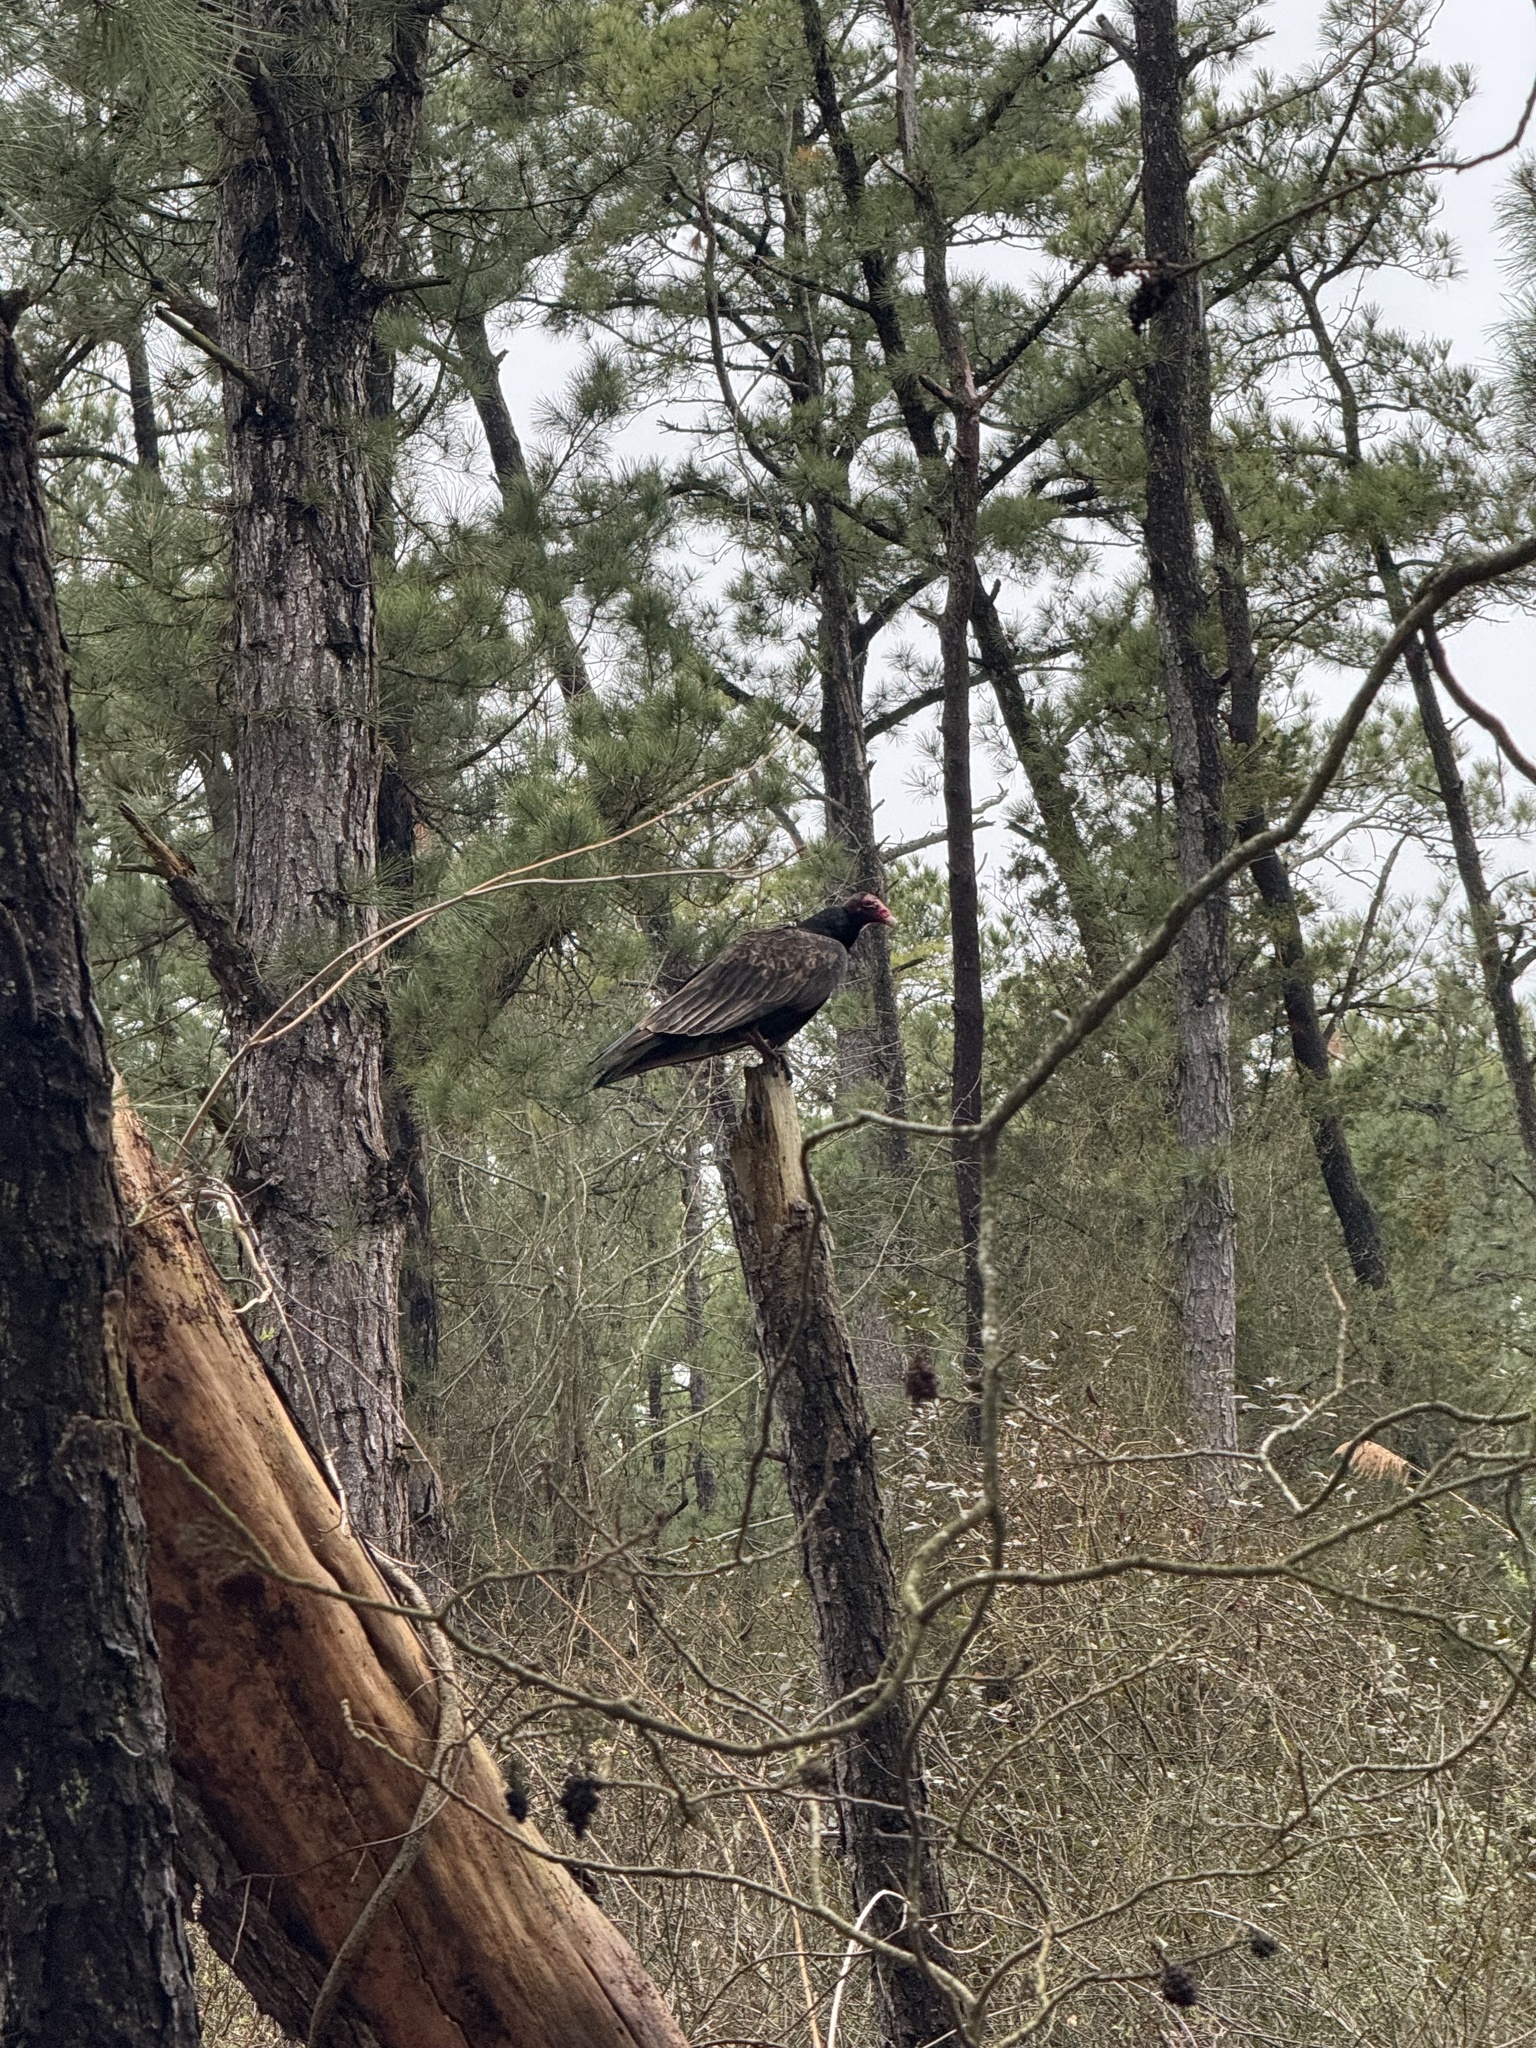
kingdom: Animalia
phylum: Chordata
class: Aves
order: Accipitriformes
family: Cathartidae
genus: Cathartes
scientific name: Cathartes aura
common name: Turkey vulture
